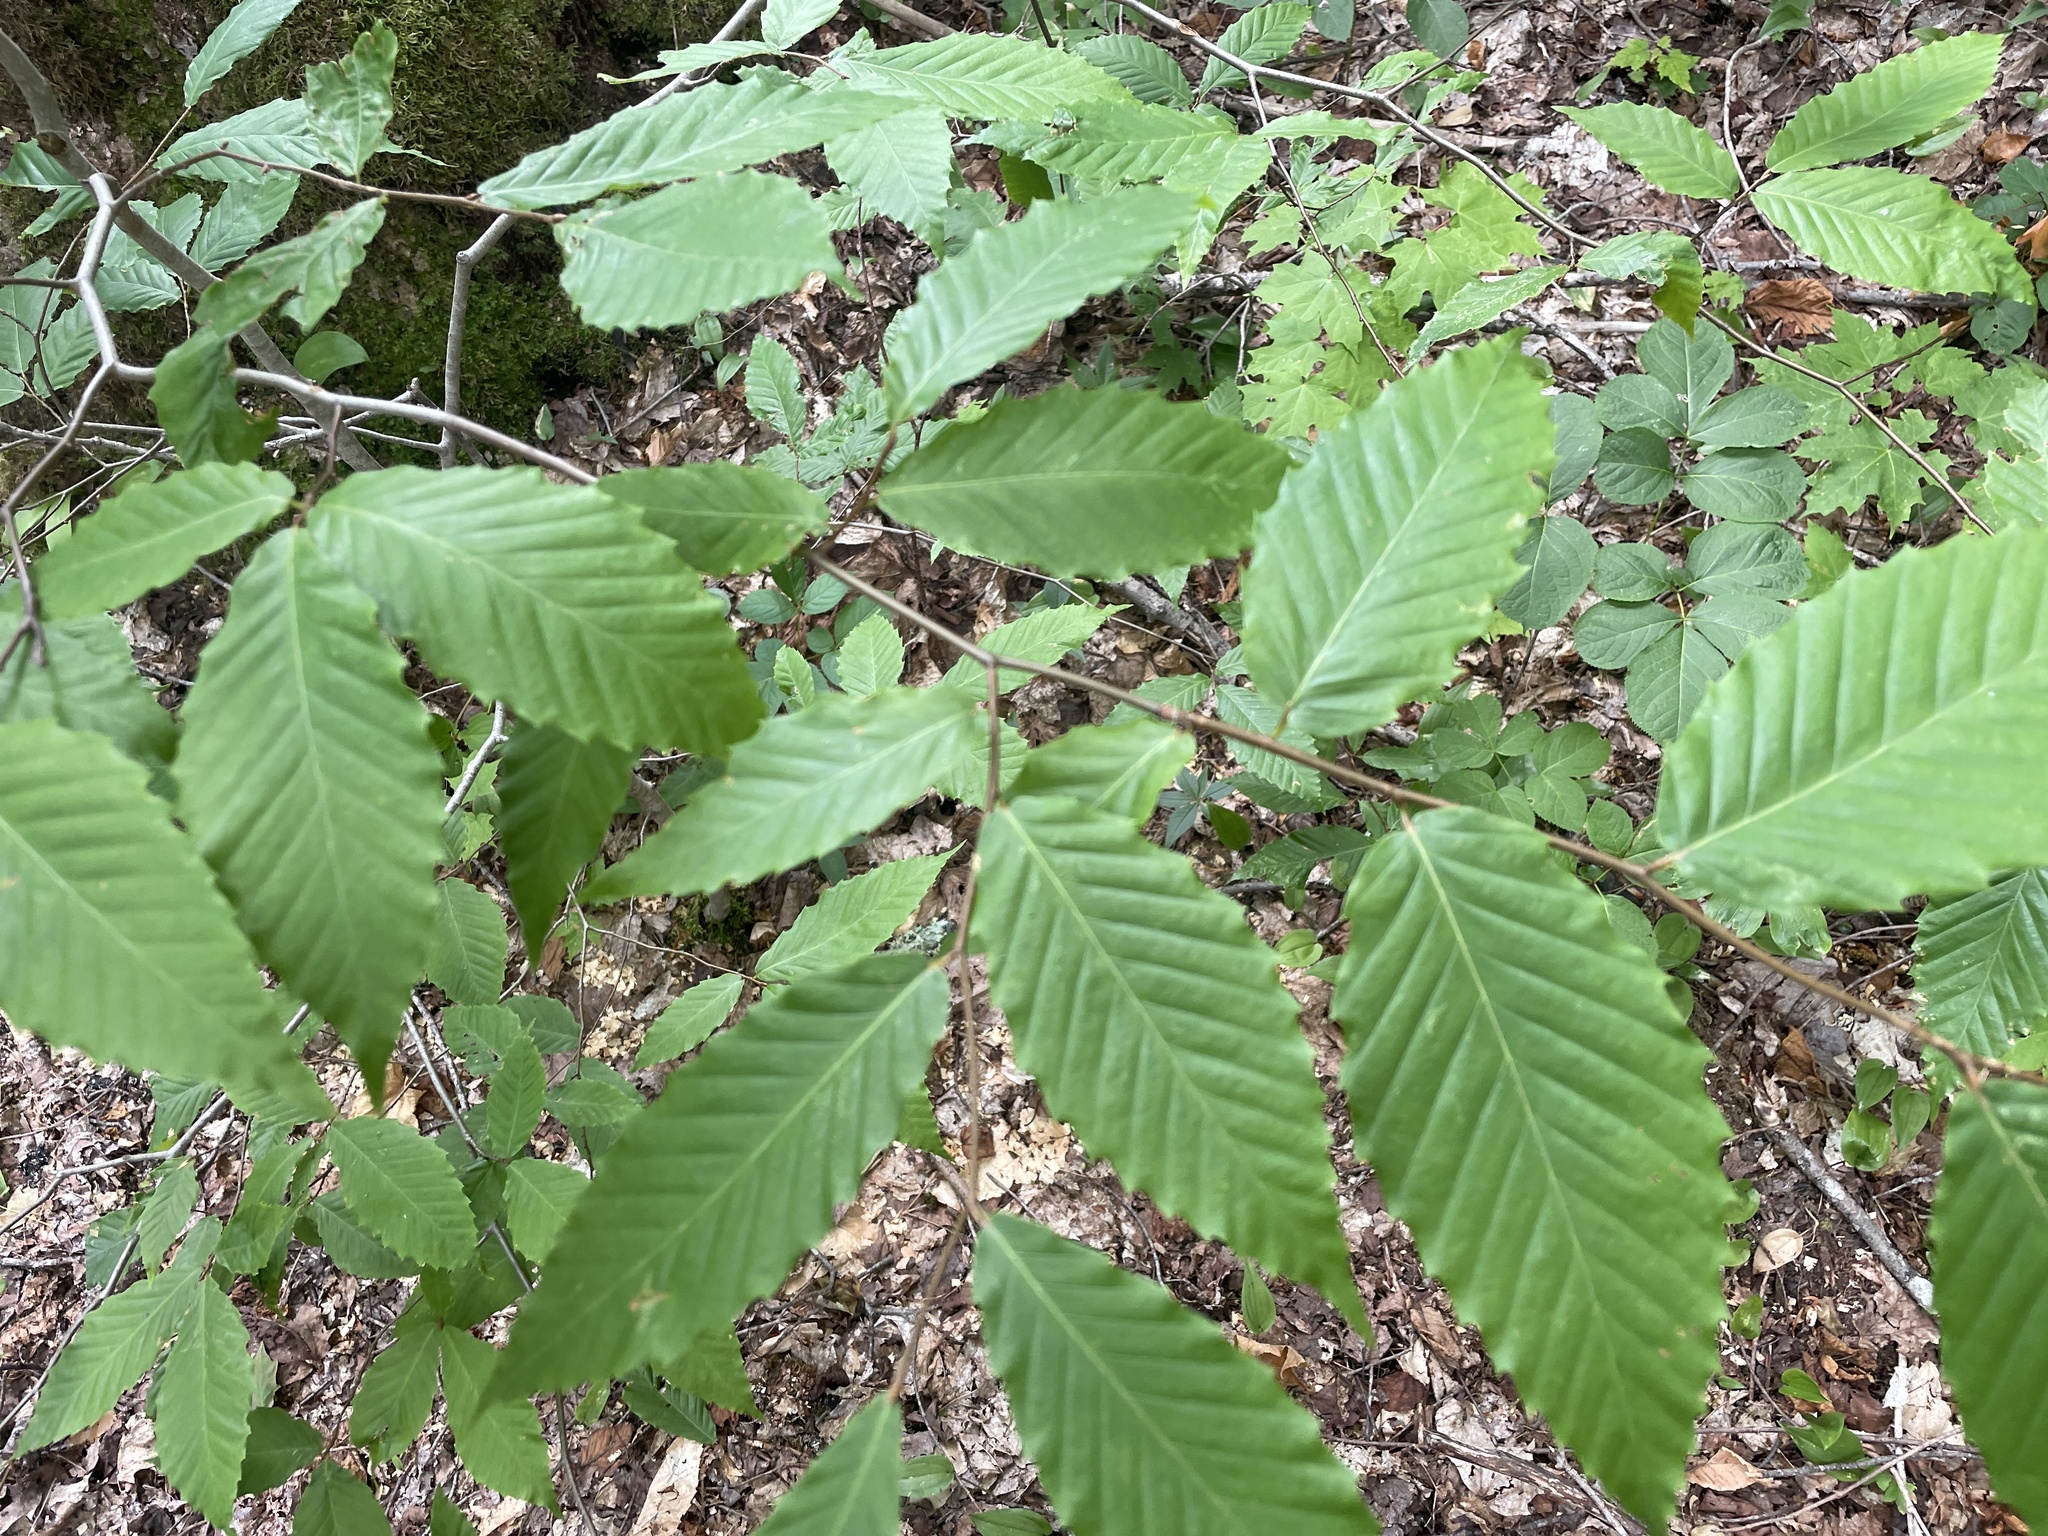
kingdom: Plantae
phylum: Tracheophyta
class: Magnoliopsida
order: Fagales
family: Fagaceae
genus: Fagus
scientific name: Fagus grandifolia
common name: American beech
